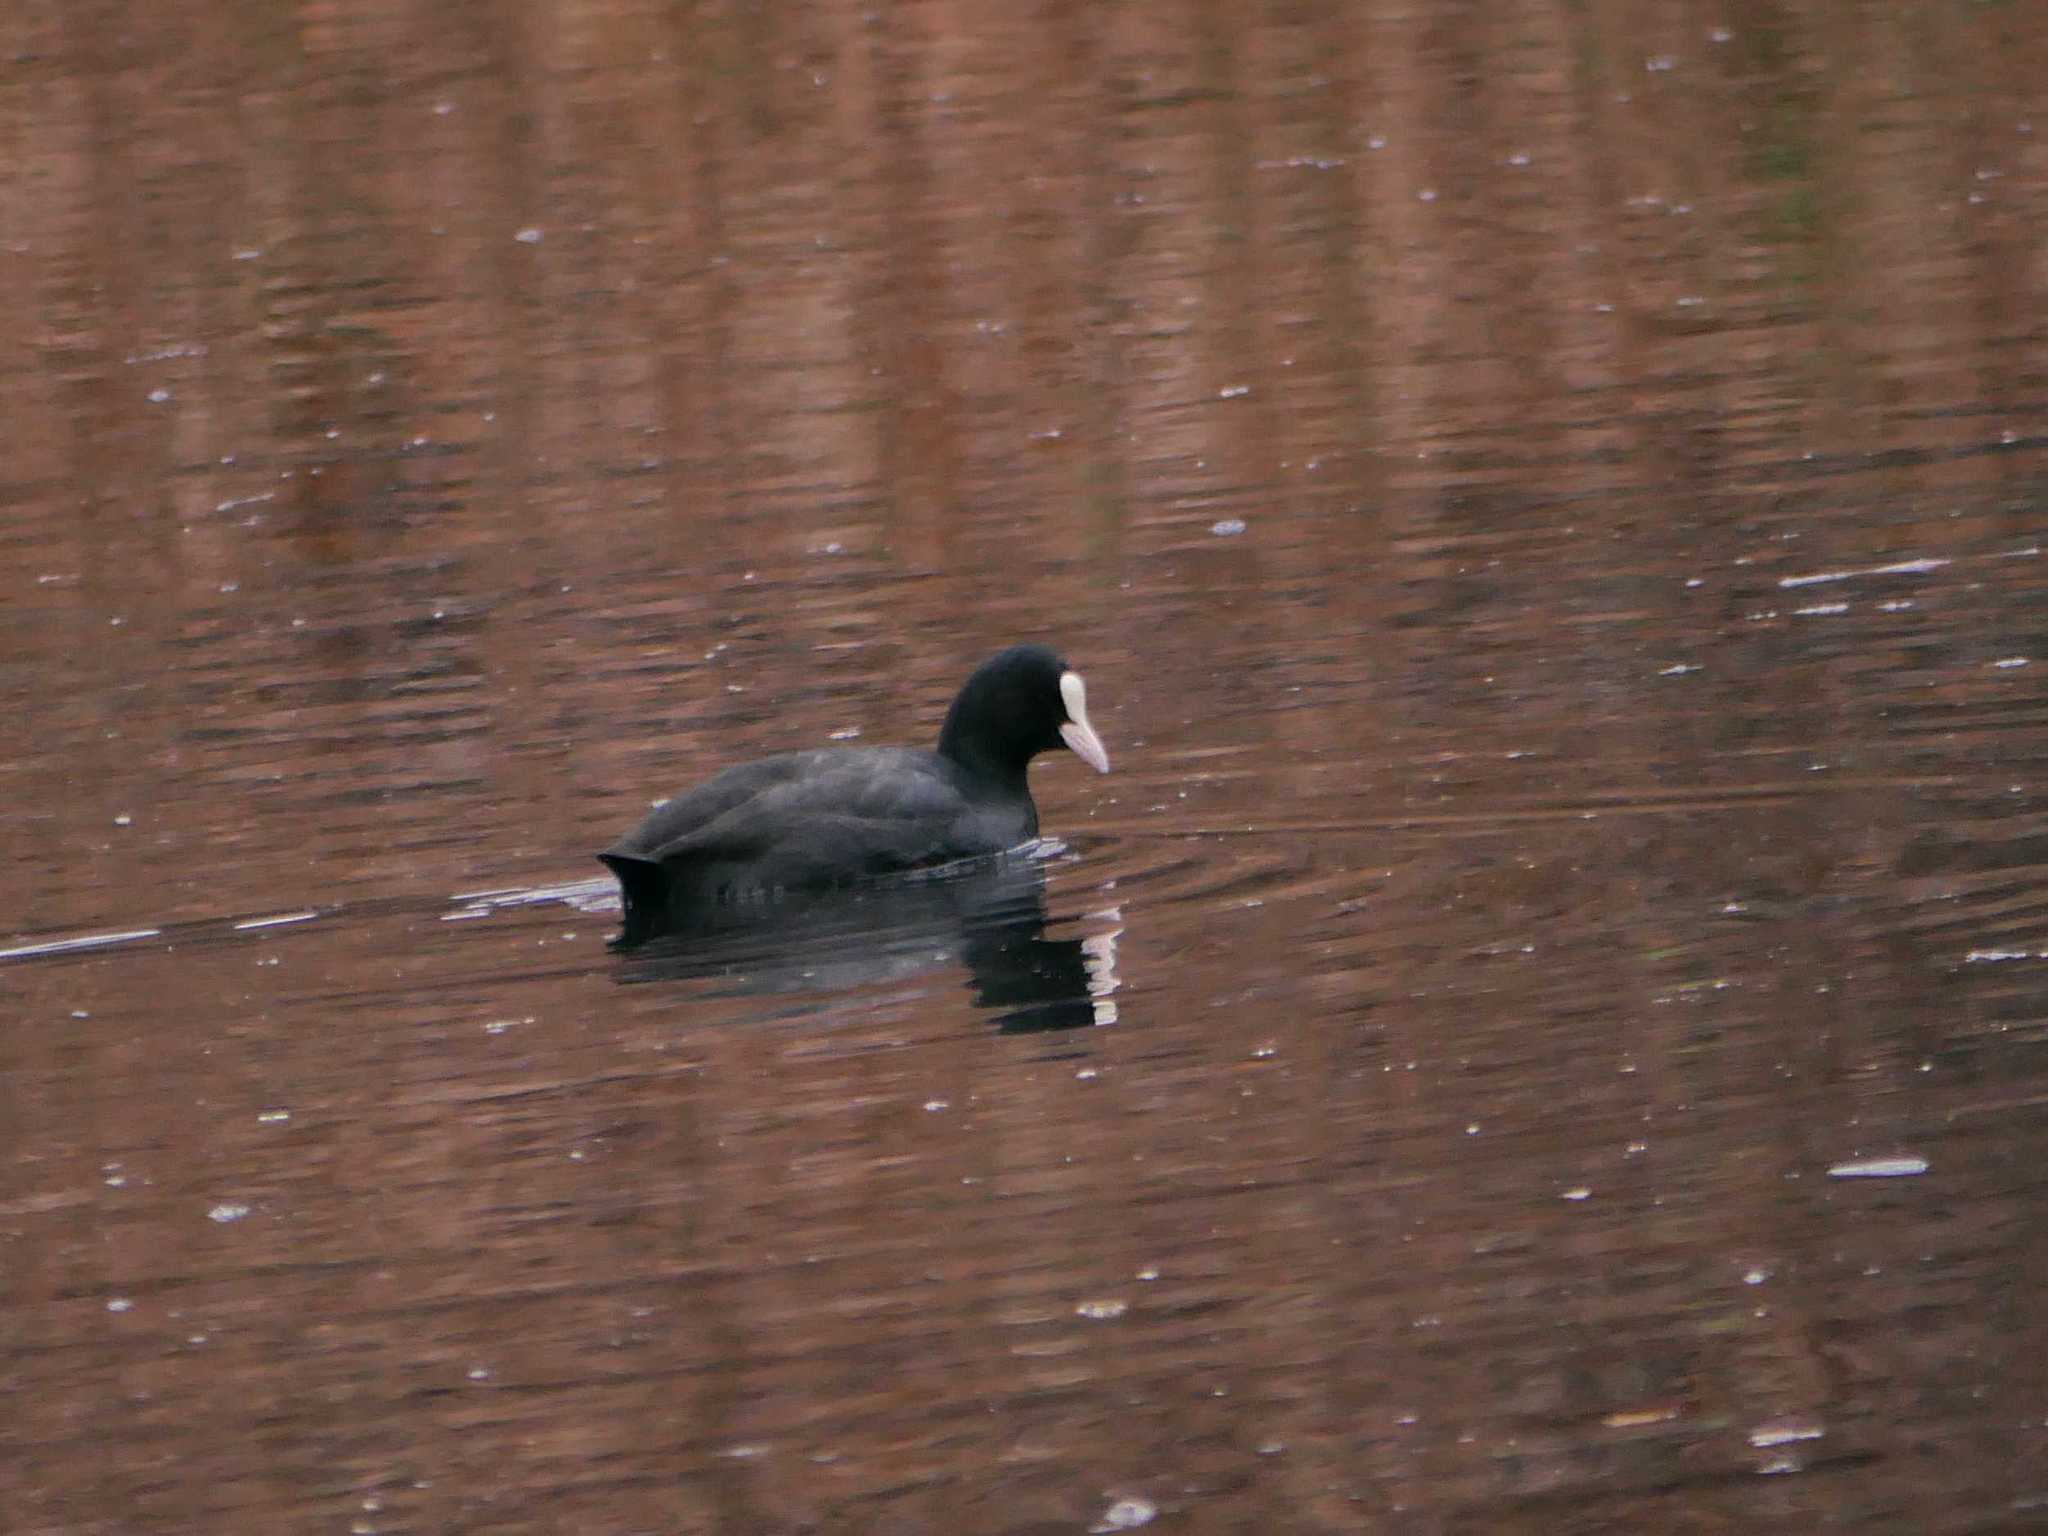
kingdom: Animalia
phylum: Chordata
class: Aves
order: Gruiformes
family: Rallidae
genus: Fulica
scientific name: Fulica atra
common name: Eurasian coot
